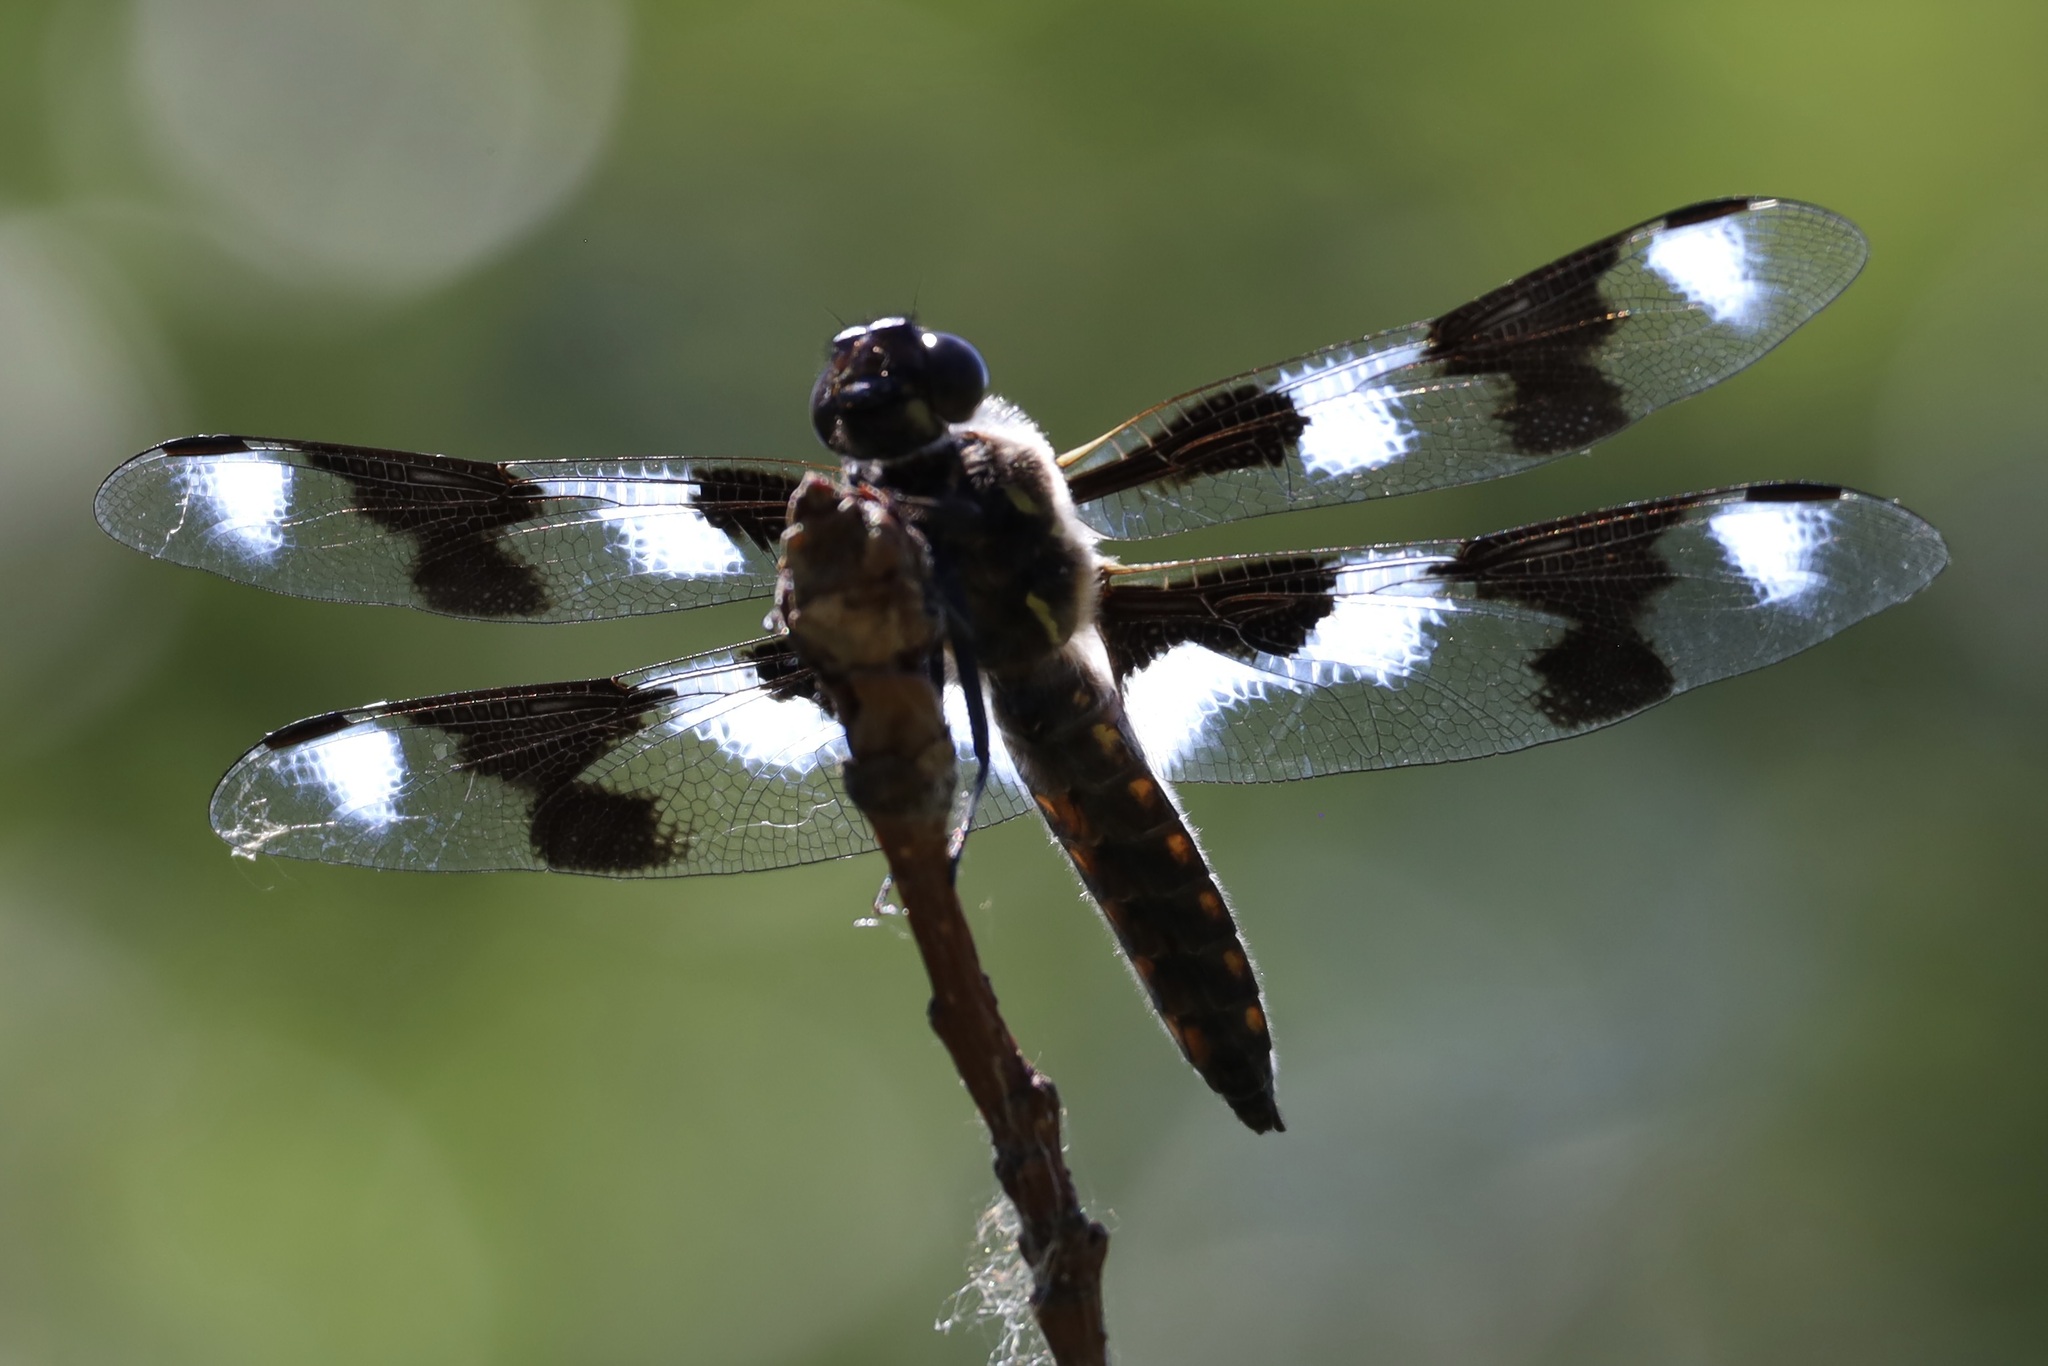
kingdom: Animalia
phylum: Arthropoda
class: Insecta
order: Odonata
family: Libellulidae
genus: Libellula
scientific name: Libellula forensis
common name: Eight-spotted skimmer
